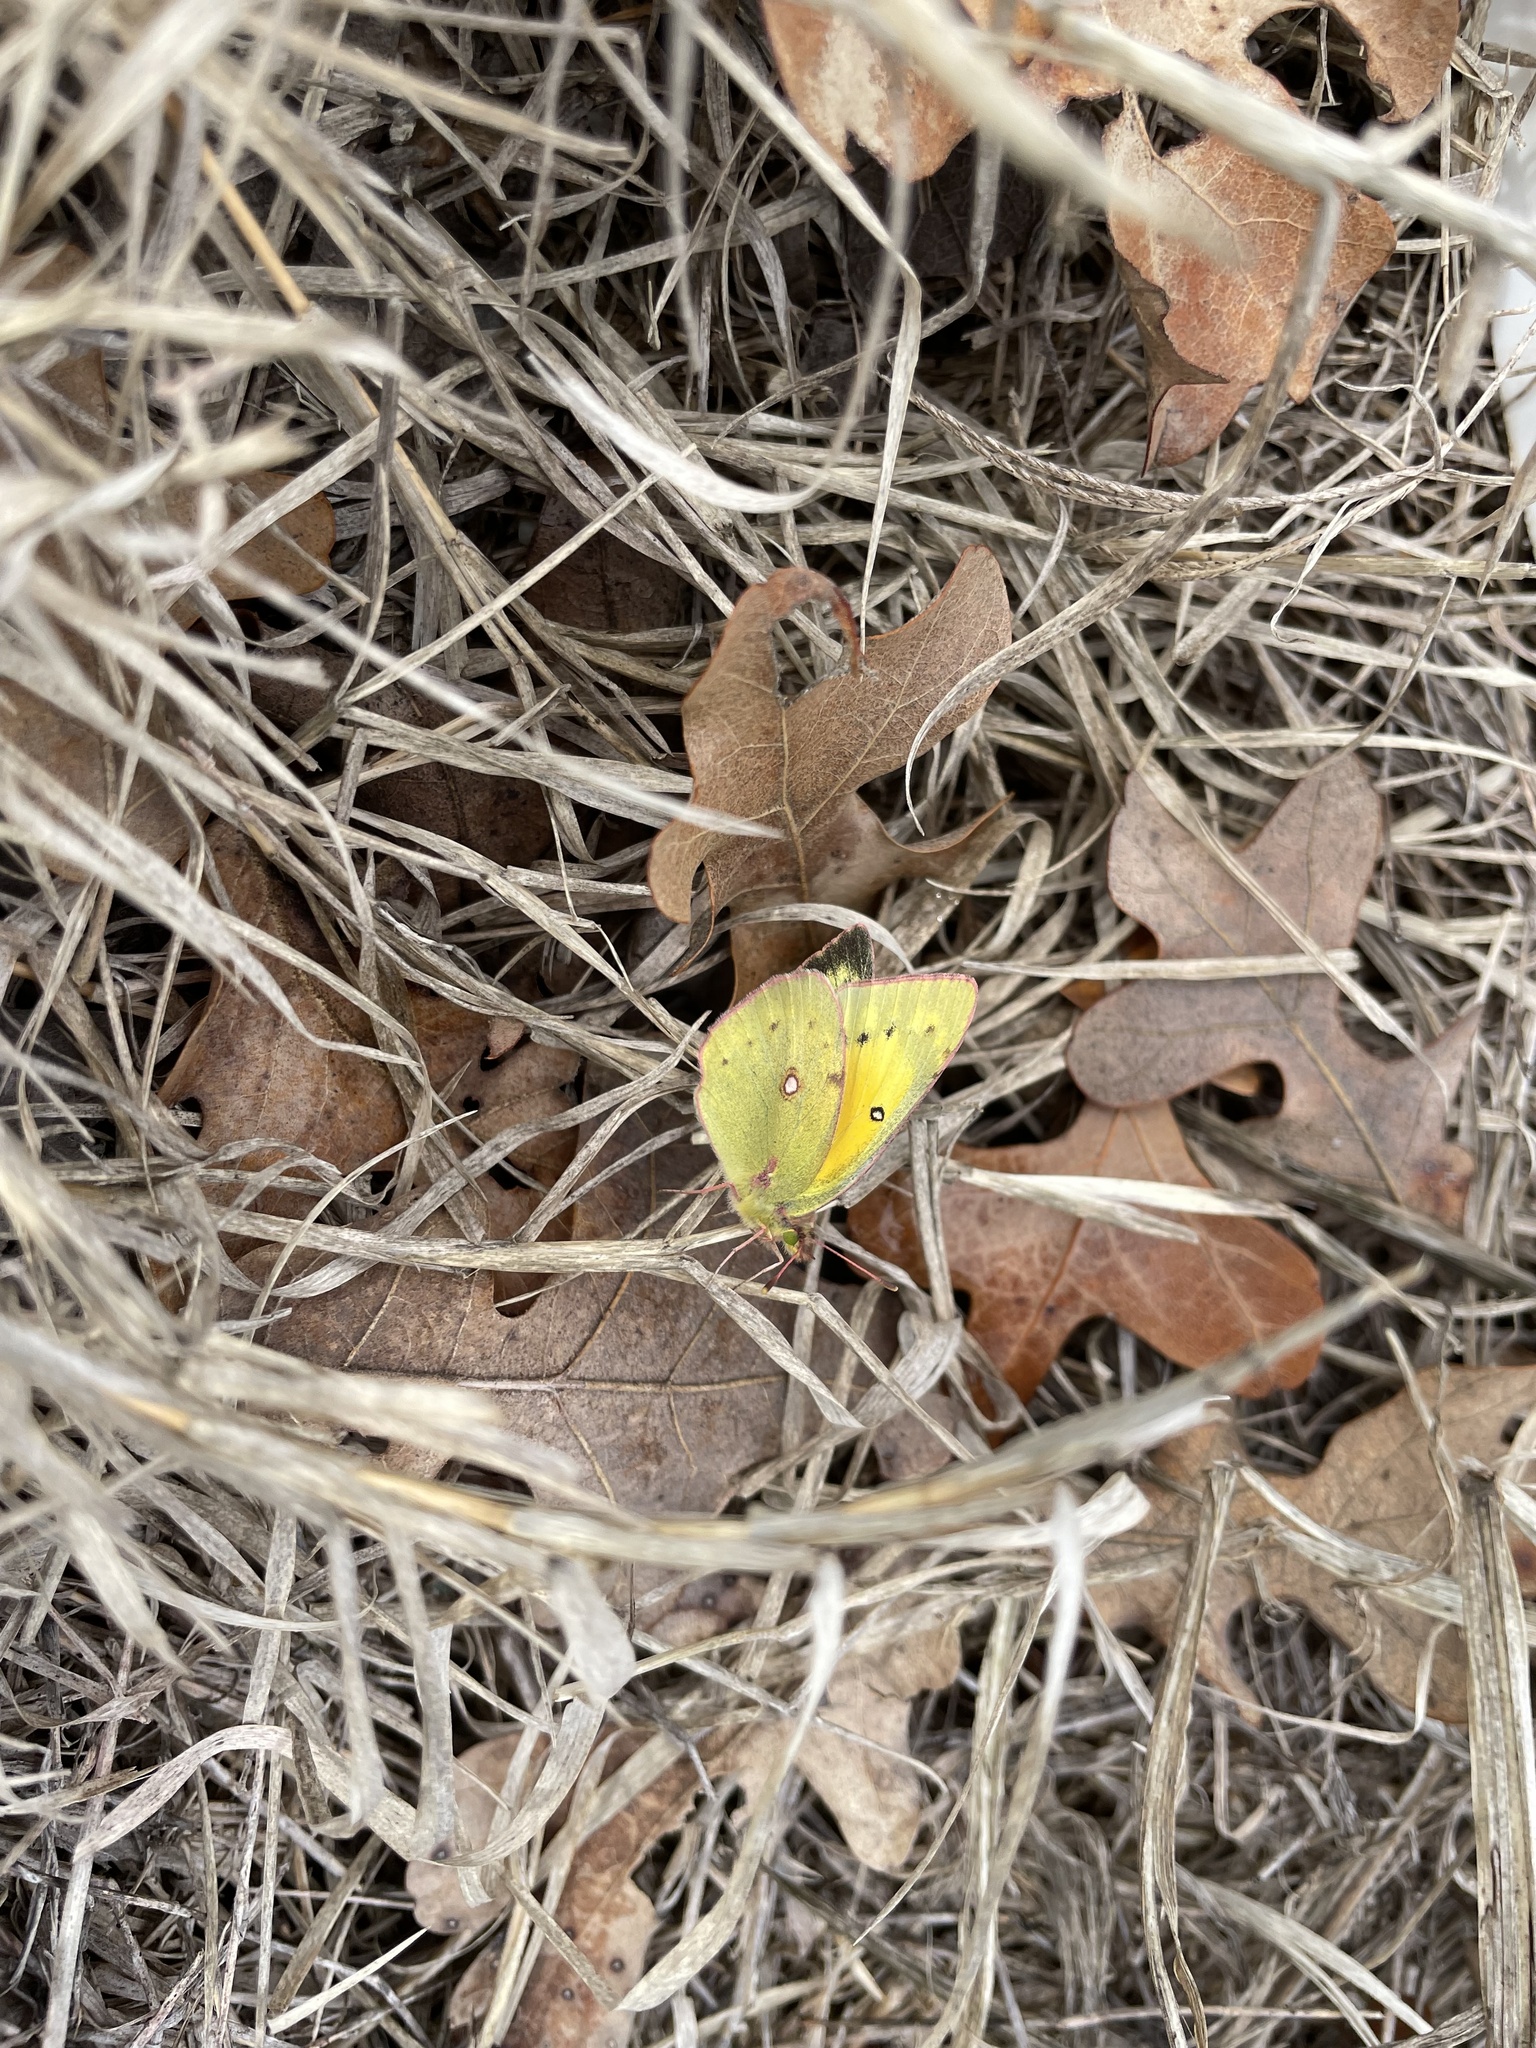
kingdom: Animalia
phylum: Arthropoda
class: Insecta
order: Lepidoptera
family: Pieridae
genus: Colias
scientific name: Colias eurytheme
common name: Alfalfa butterfly
